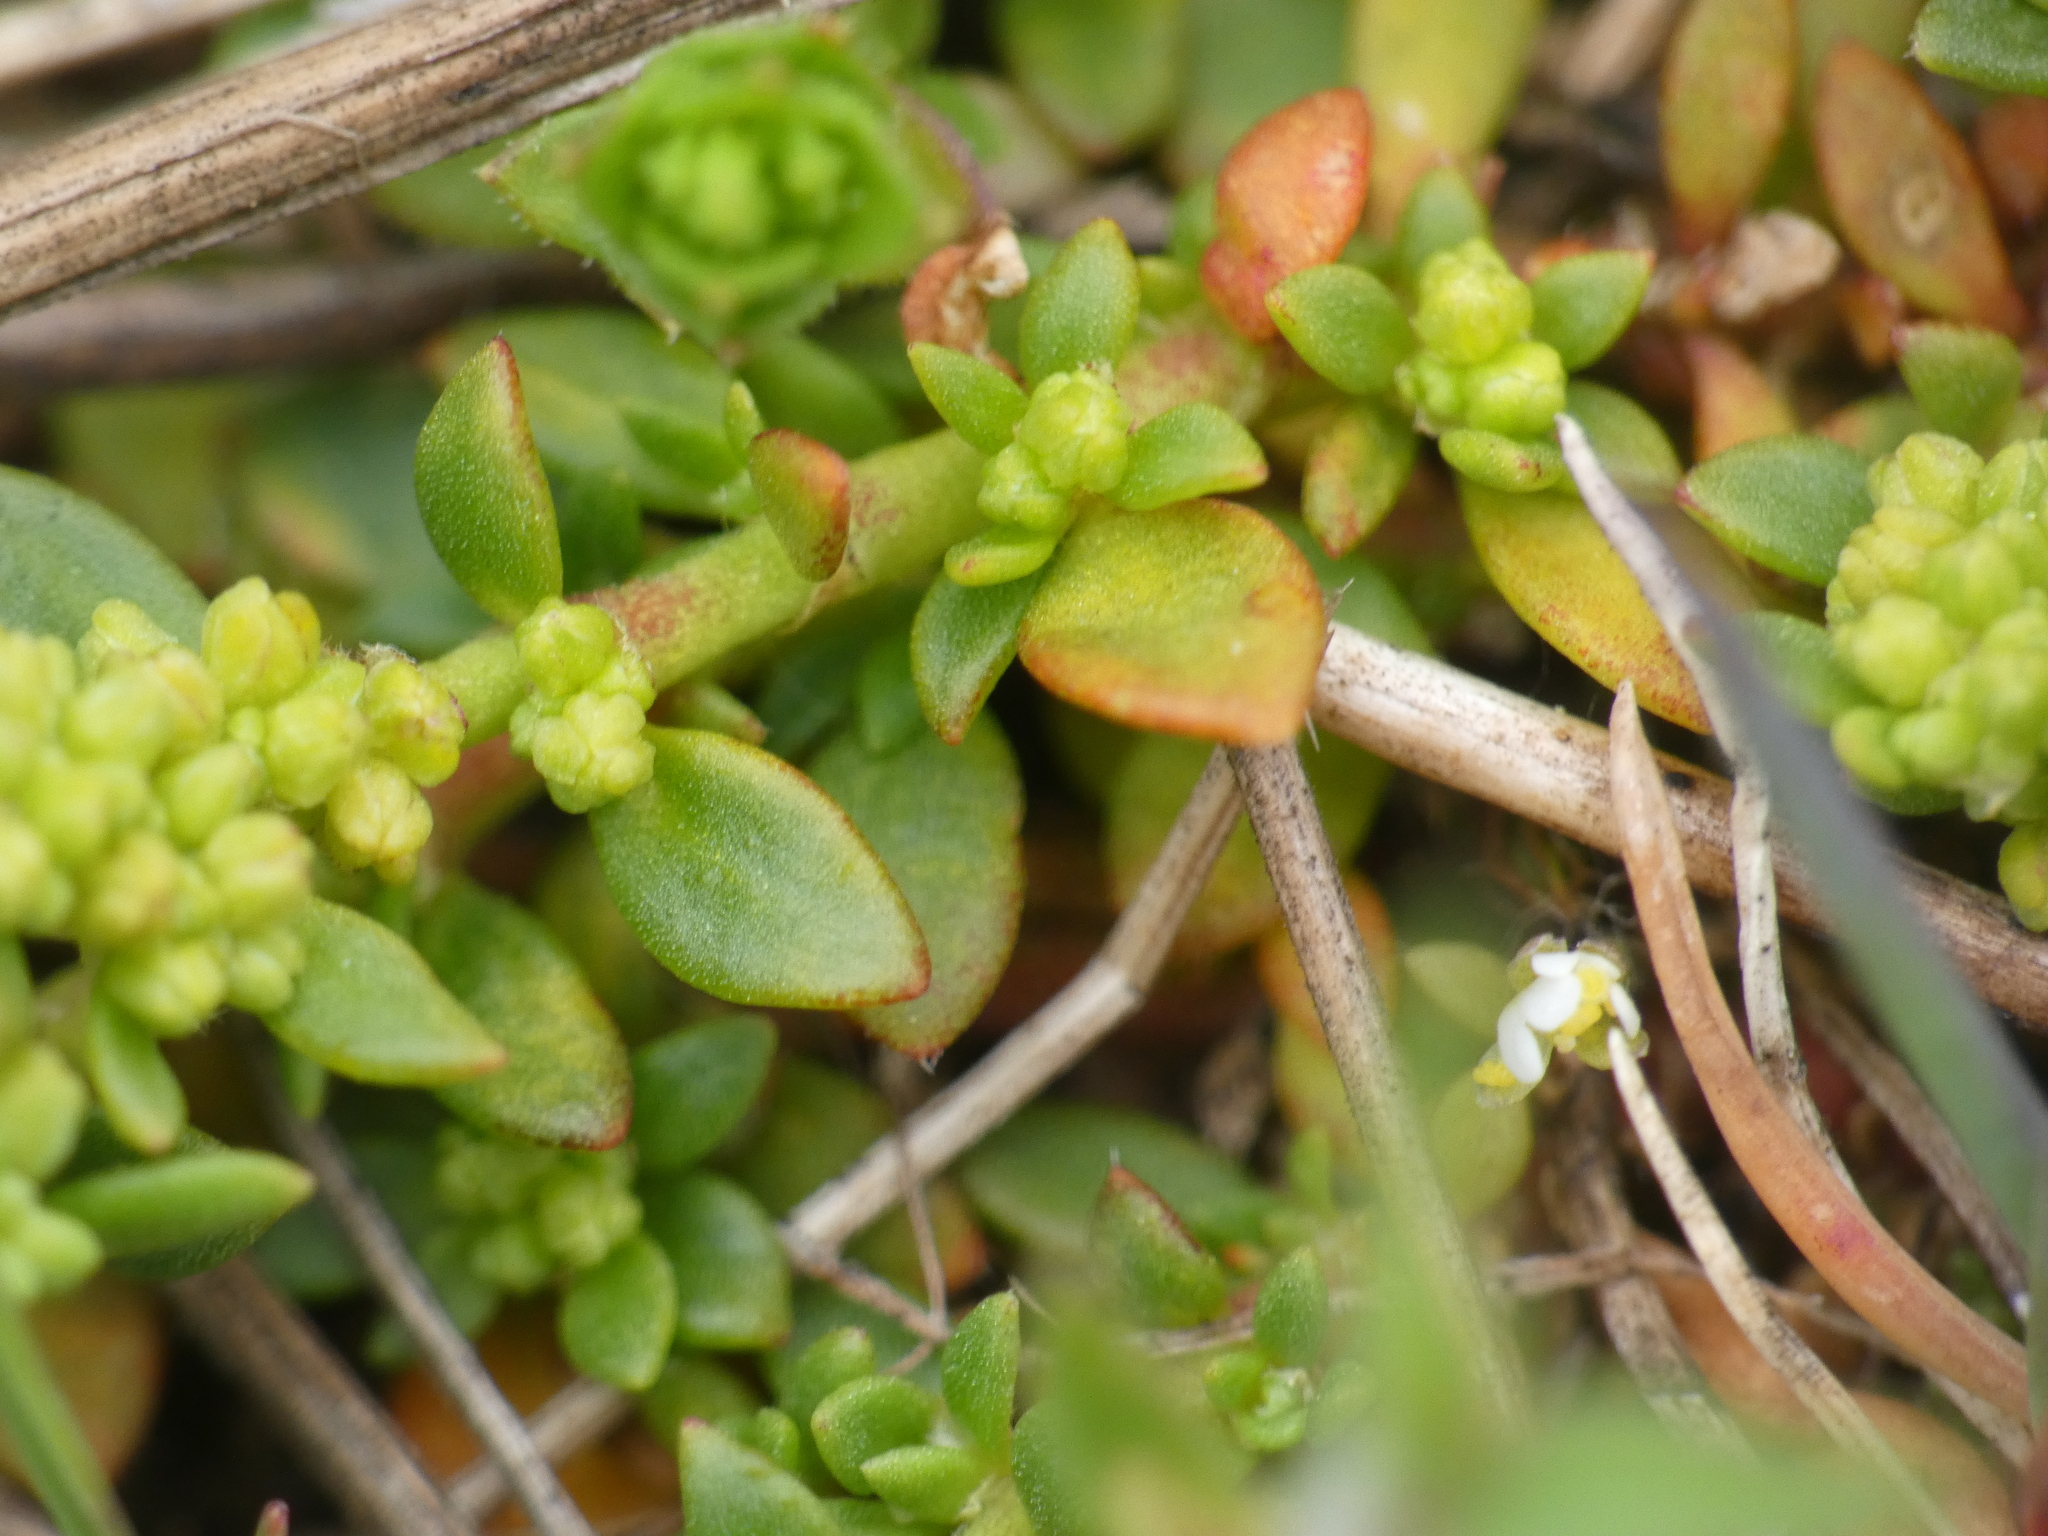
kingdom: Plantae
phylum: Tracheophyta
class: Magnoliopsida
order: Caryophyllales
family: Caryophyllaceae
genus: Herniaria
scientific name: Herniaria glabra
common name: Smooth rupturewort
